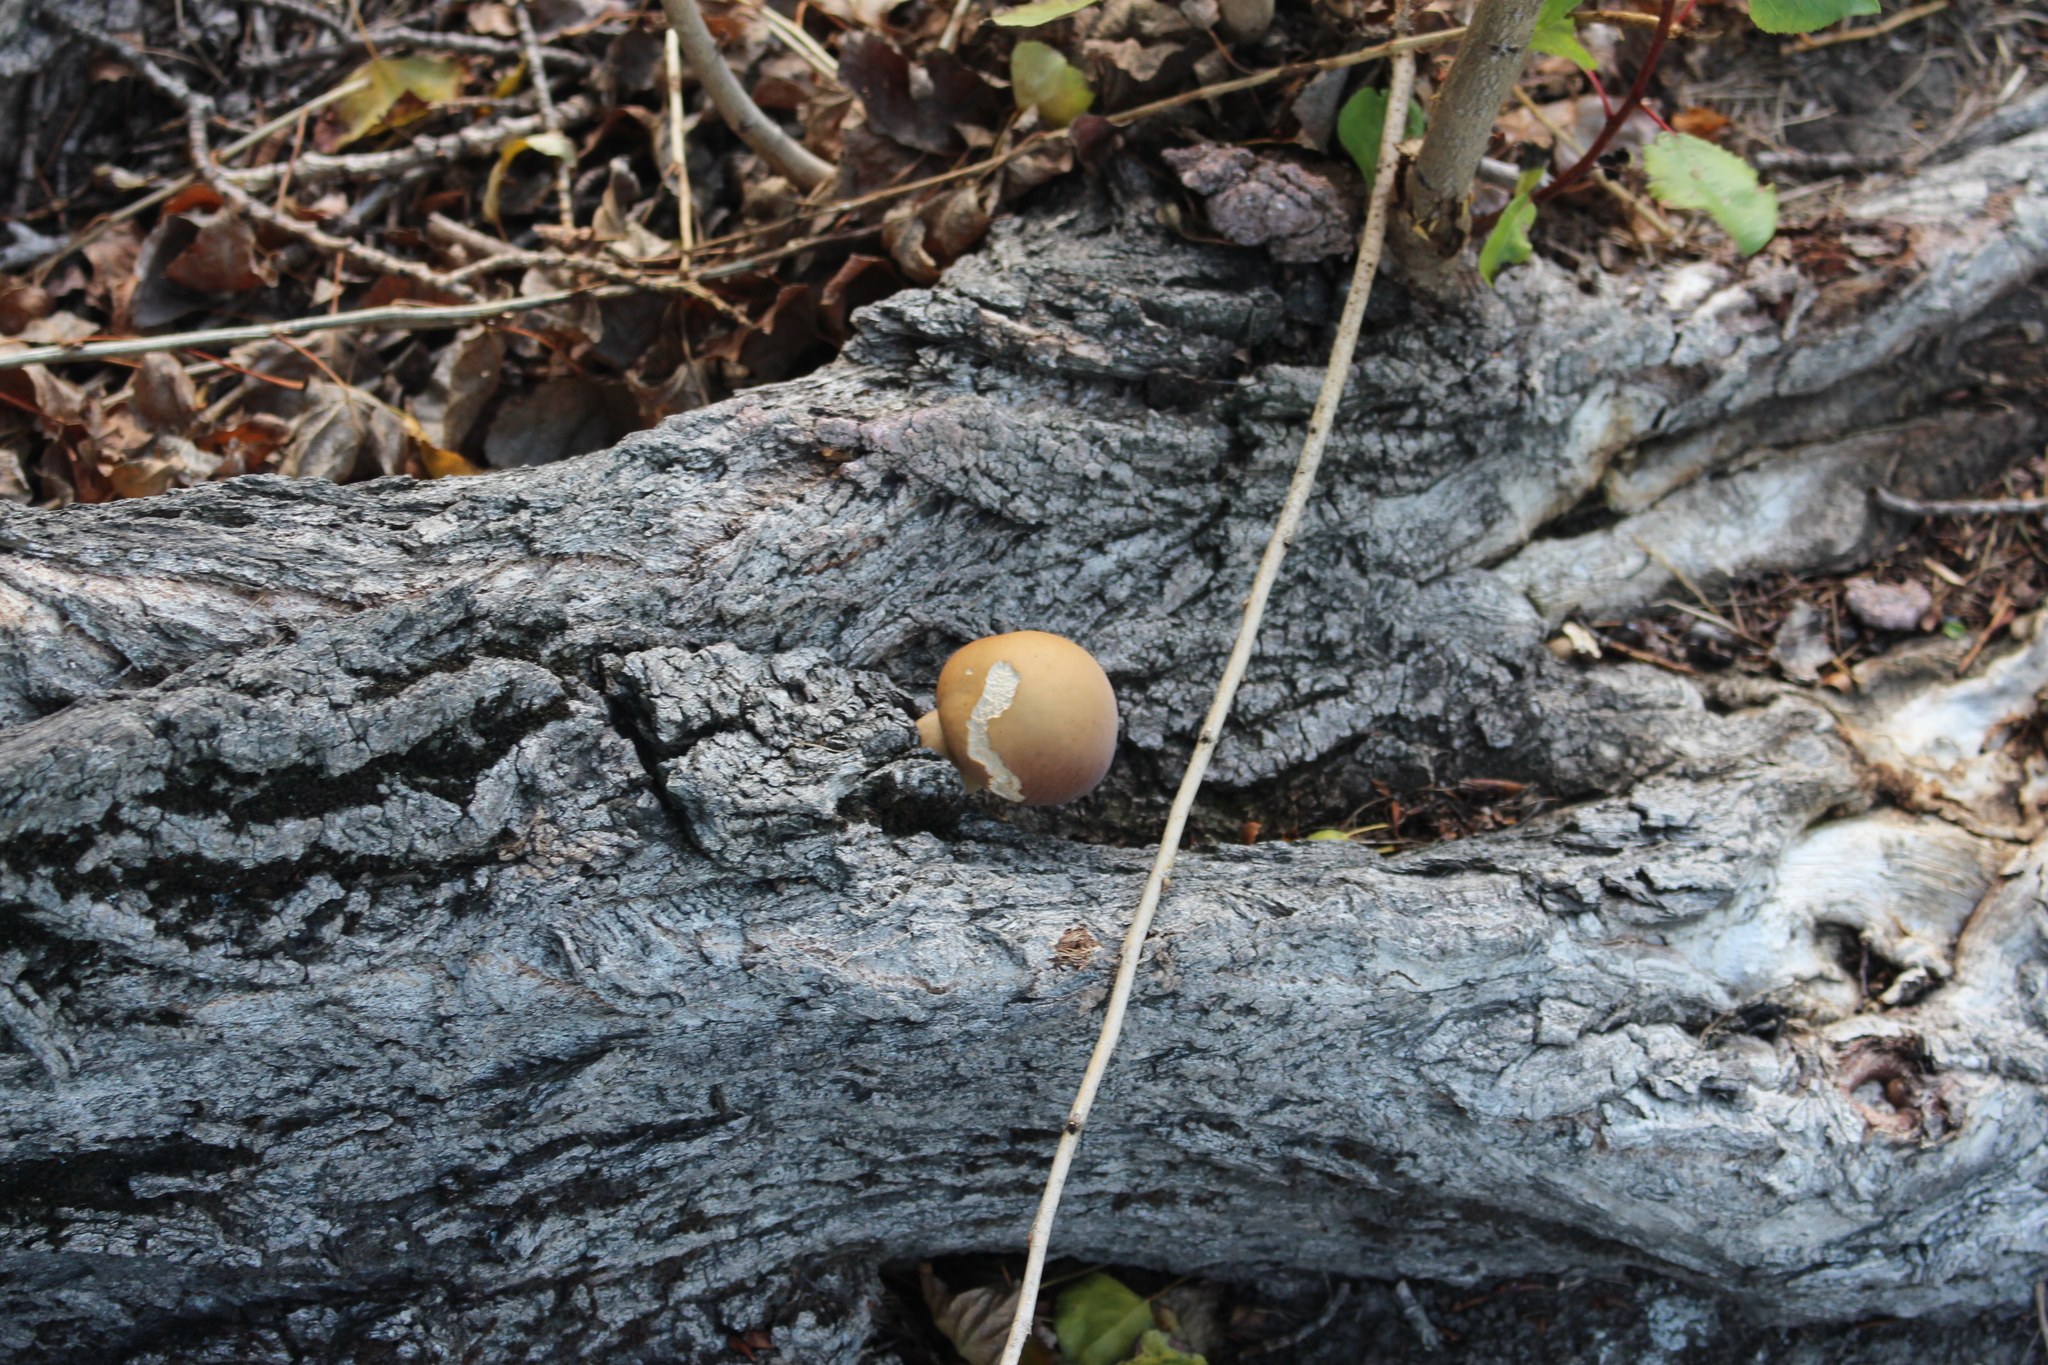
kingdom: Fungi
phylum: Basidiomycota
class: Agaricomycetes
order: Agaricales
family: Tubariaceae
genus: Cyclocybe
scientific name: Cyclocybe parasitica
